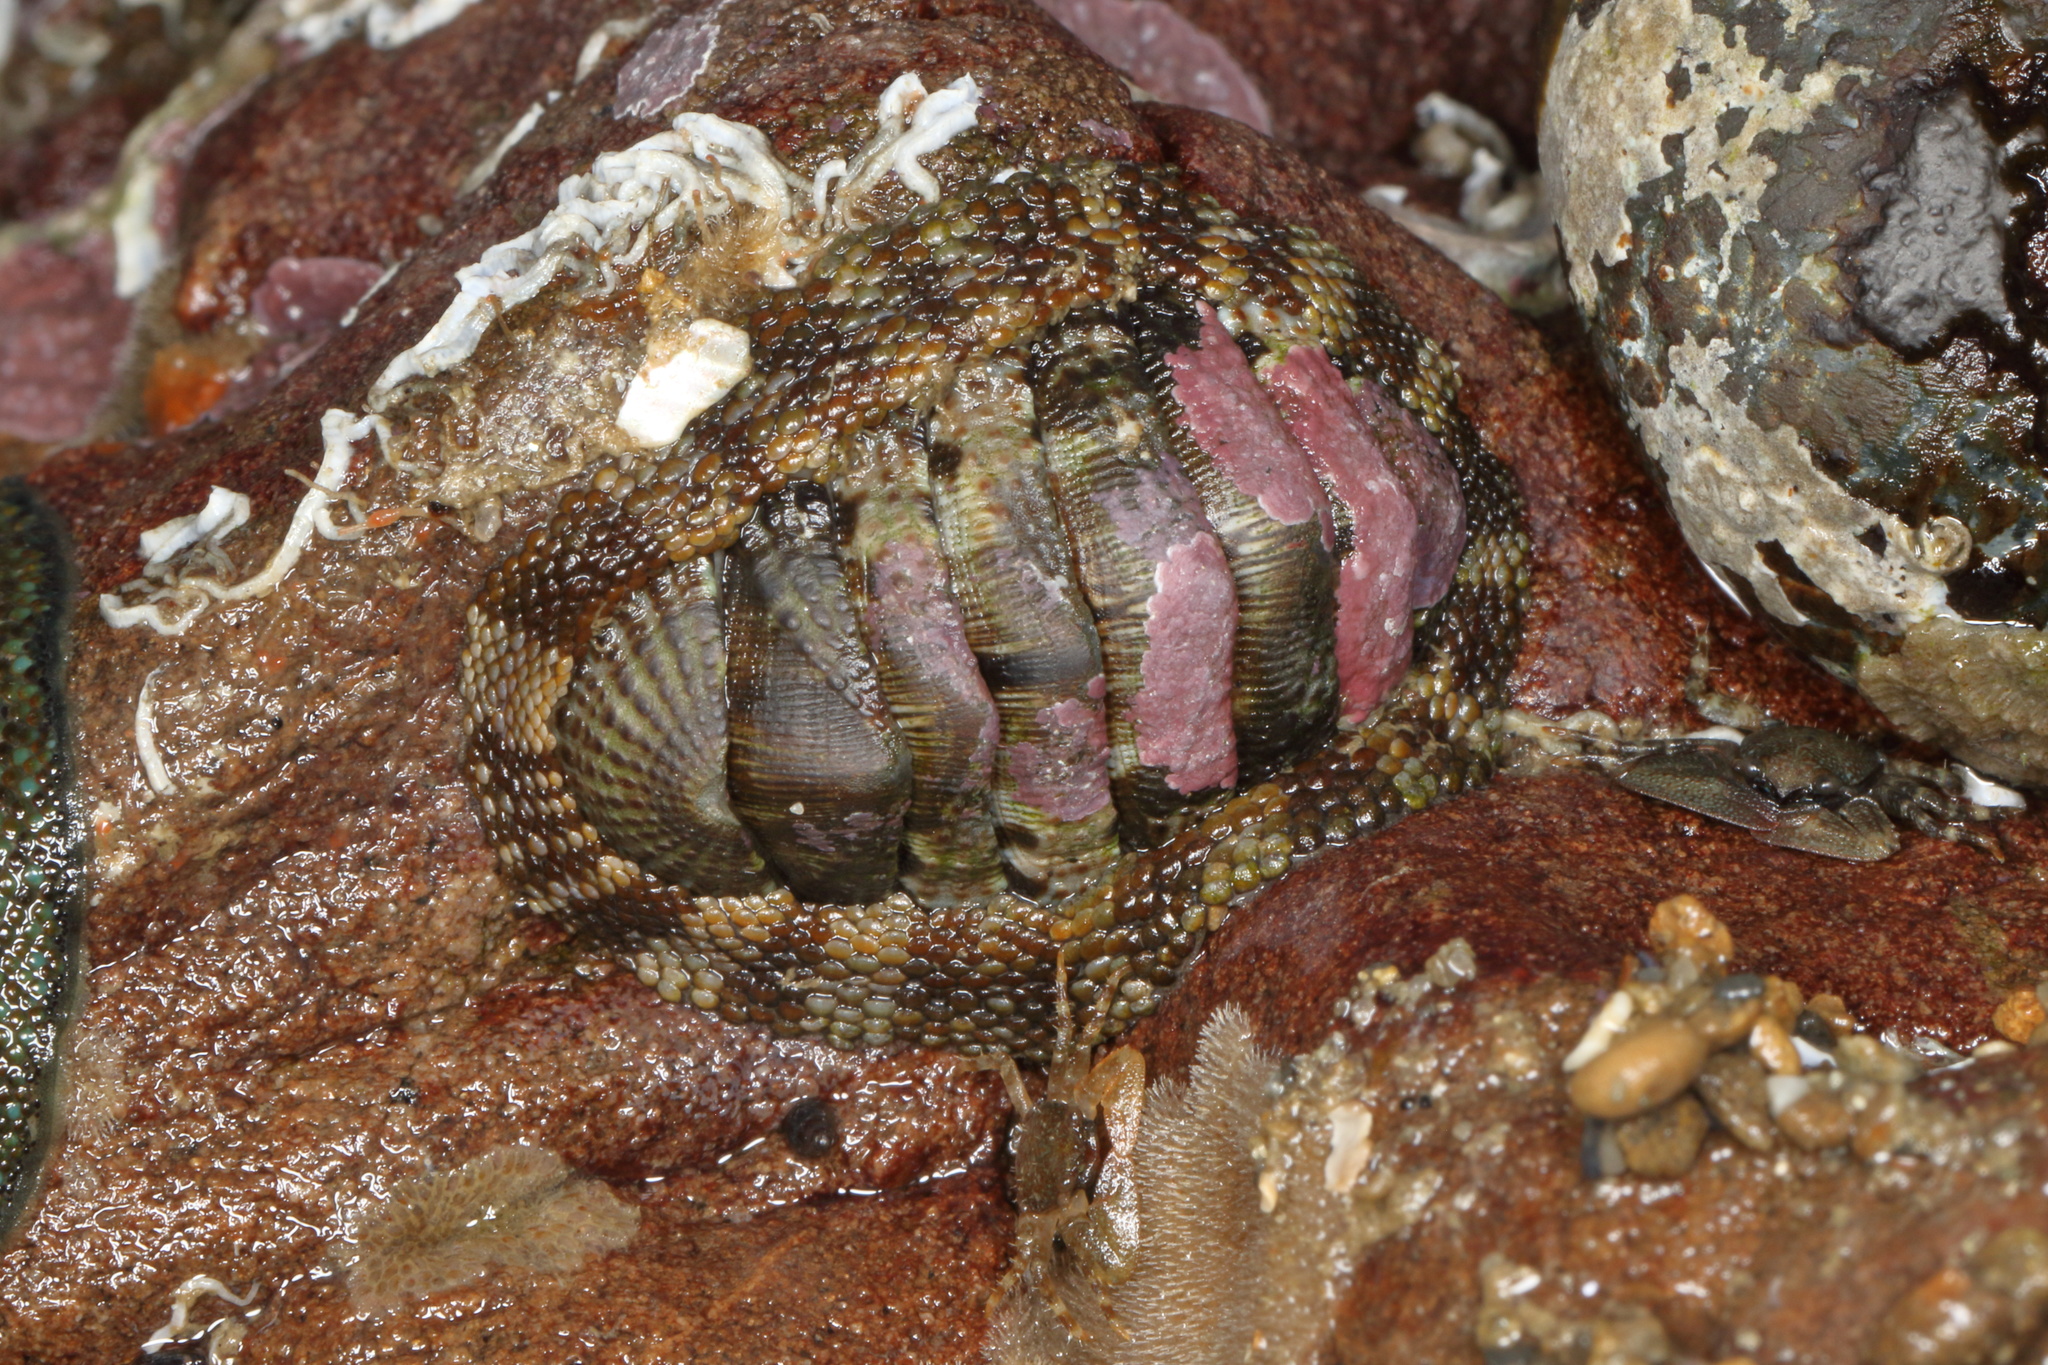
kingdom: Animalia
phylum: Mollusca
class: Polyplacophora
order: Chitonida
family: Chitonidae
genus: Sypharochiton
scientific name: Sypharochiton pelliserpentis
